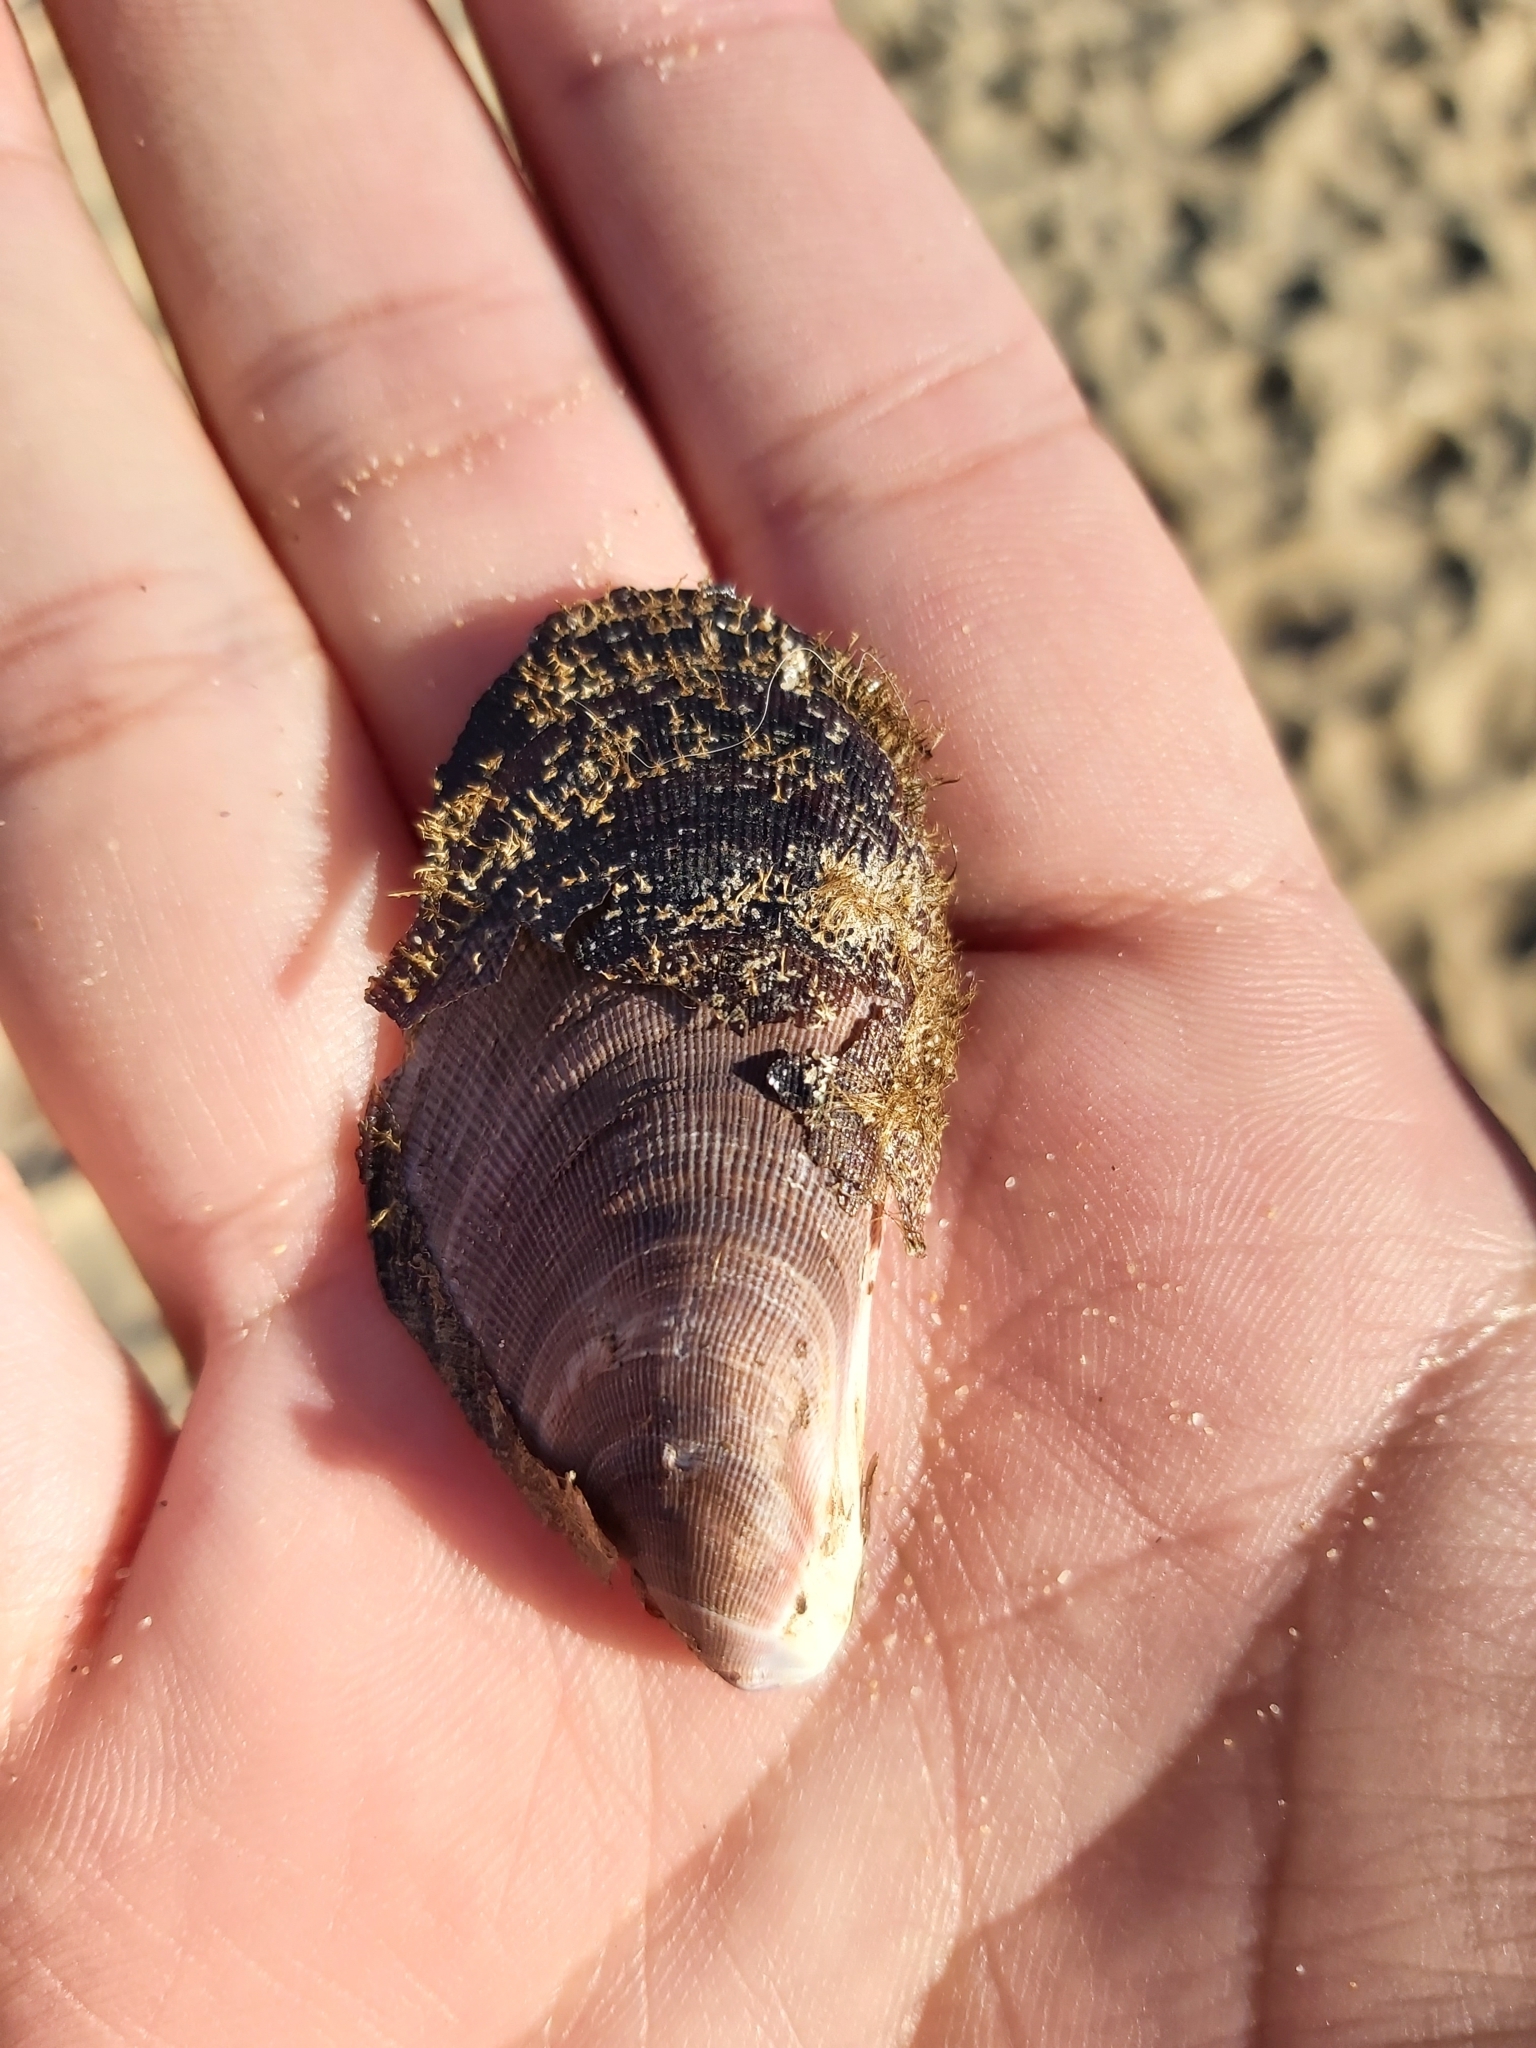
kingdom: Animalia
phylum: Mollusca
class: Bivalvia
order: Mytilida
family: Mytilidae
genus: Trichomya
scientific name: Trichomya hirsuta
